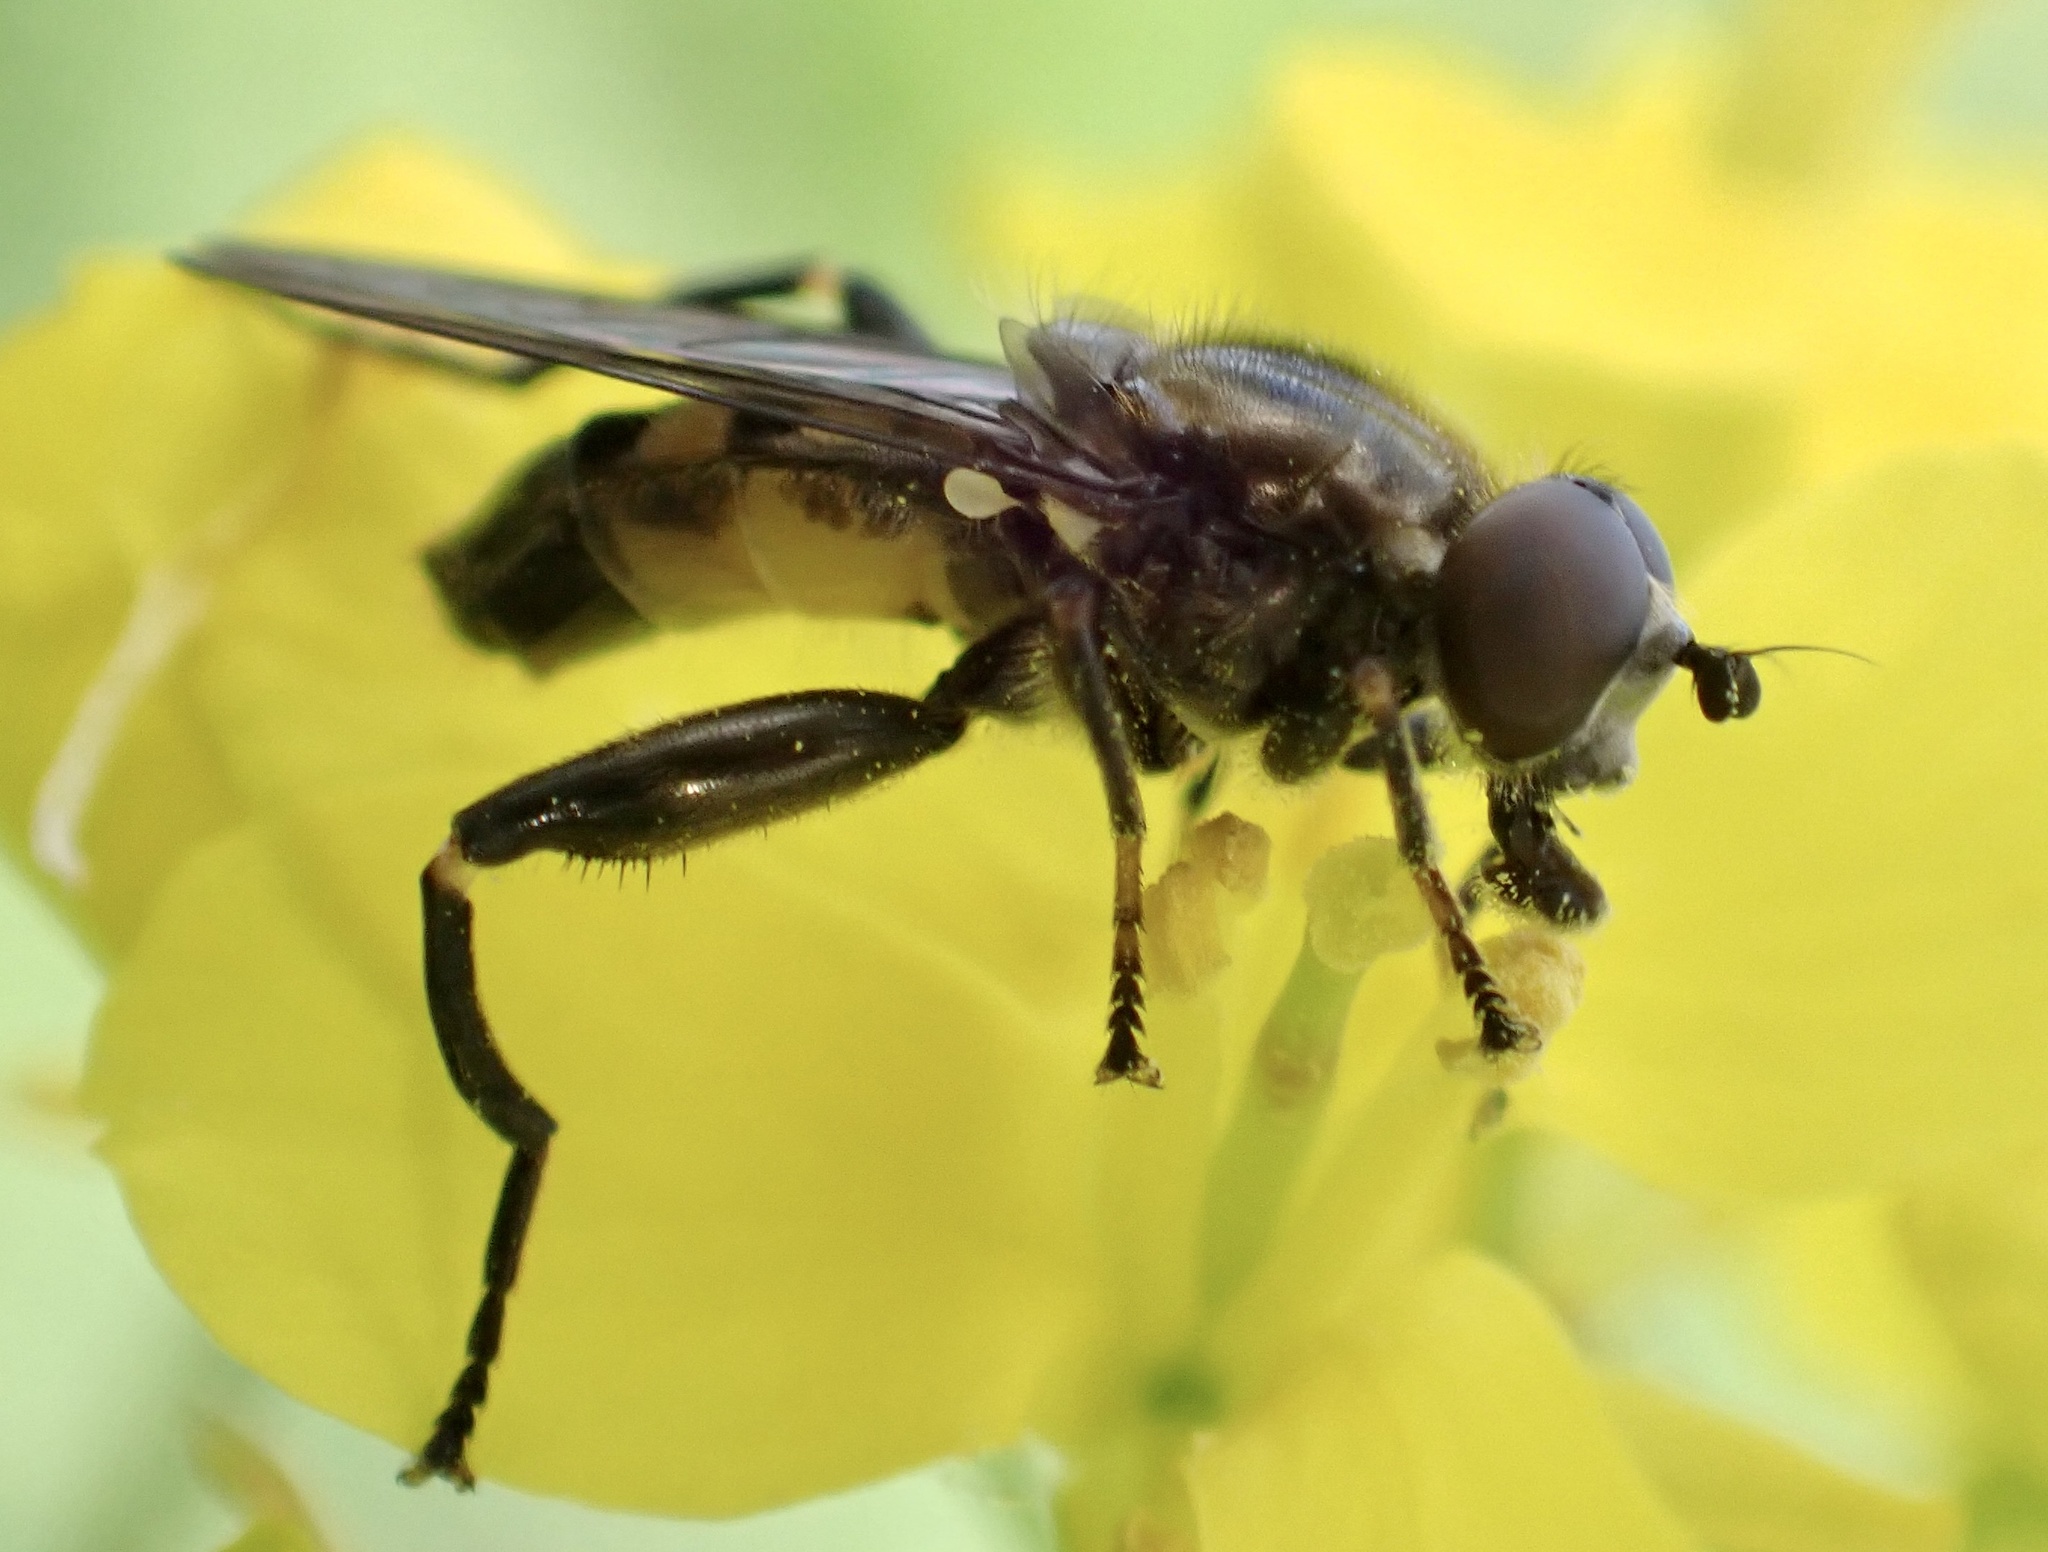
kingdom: Animalia
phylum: Arthropoda
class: Insecta
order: Diptera
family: Syrphidae
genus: Chalcosyrphus
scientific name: Chalcosyrphus nemorum
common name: Dusky-banded forest fly
